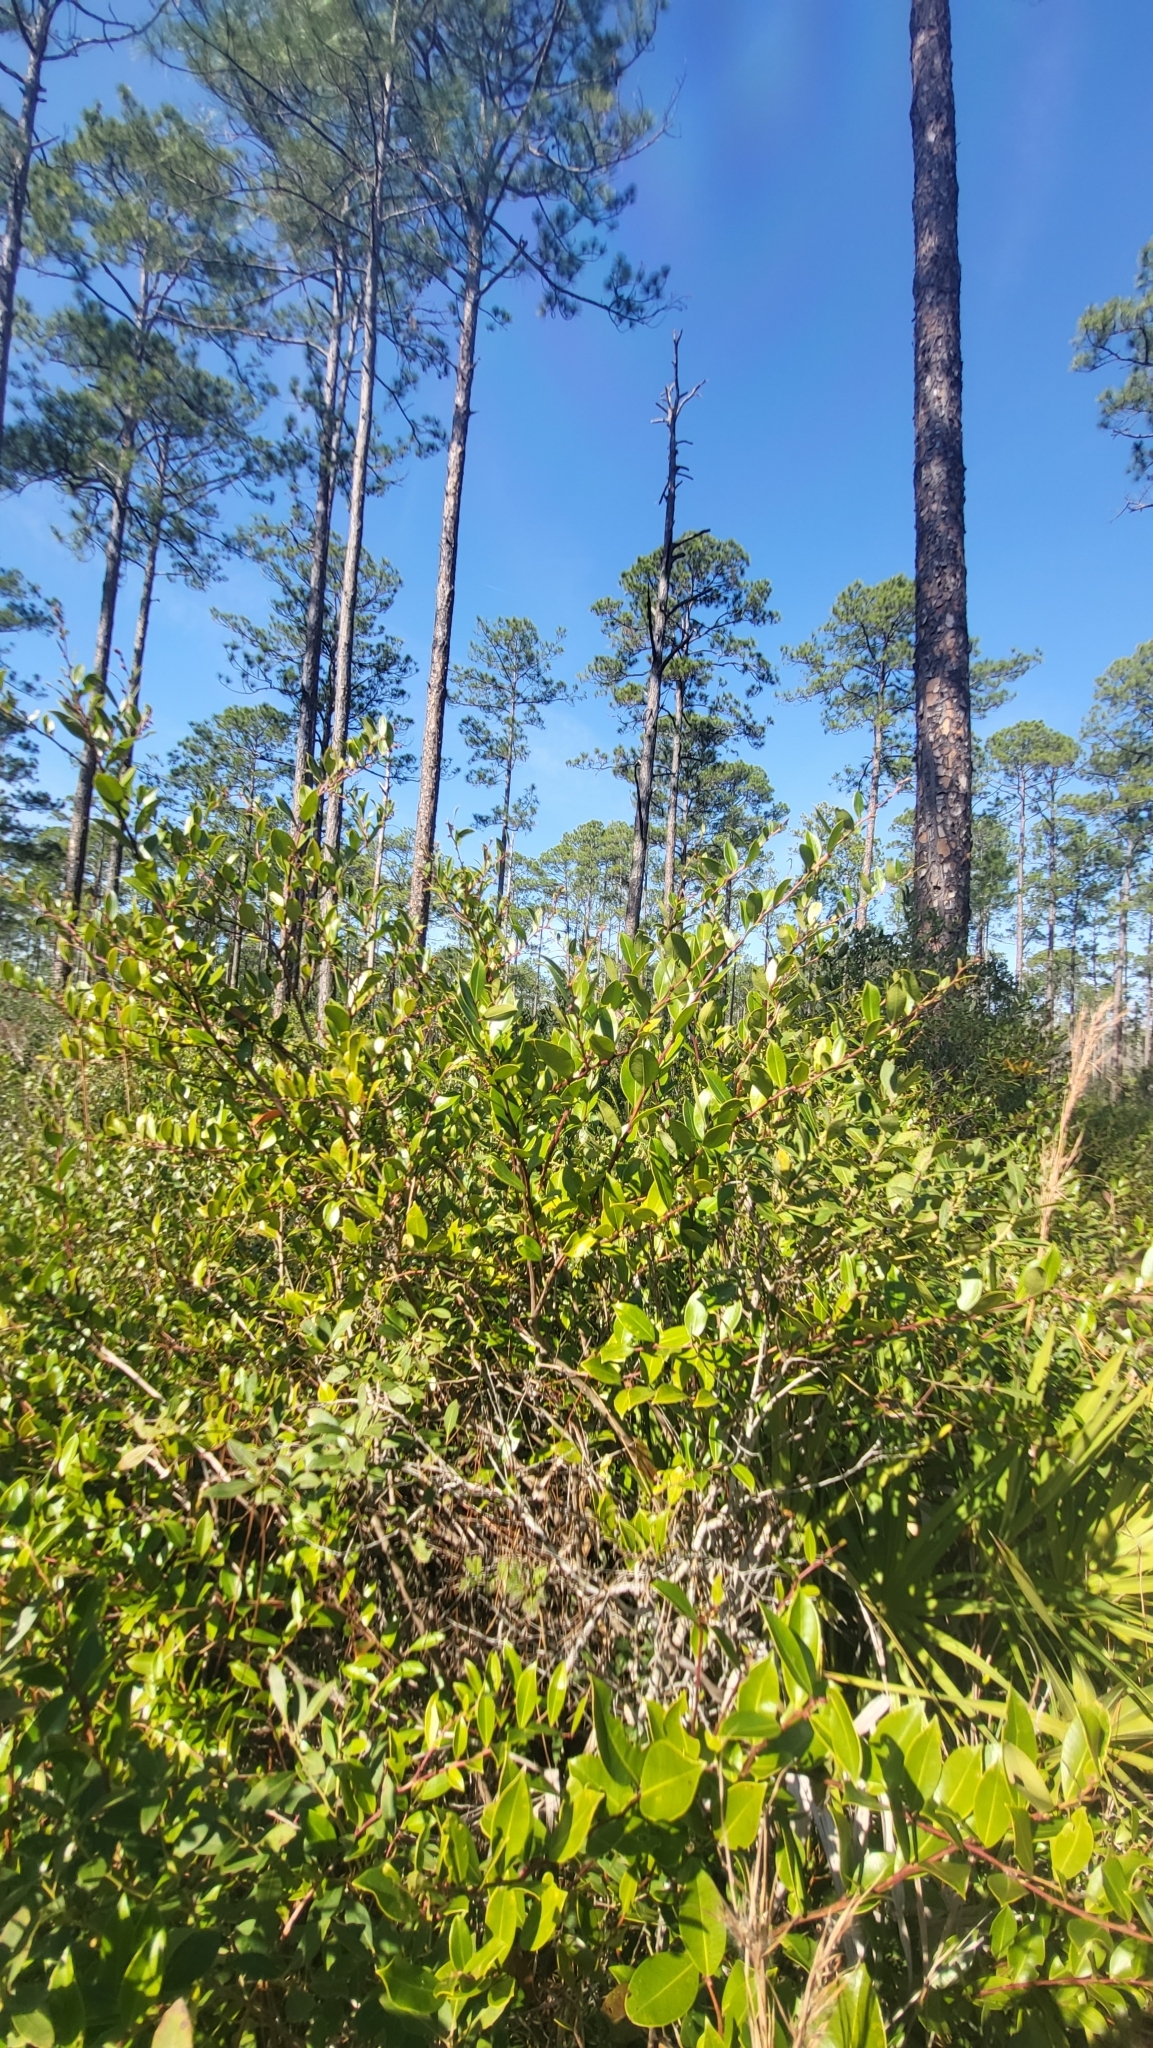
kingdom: Plantae
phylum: Tracheophyta
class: Magnoliopsida
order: Ericales
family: Ericaceae
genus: Lyonia
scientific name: Lyonia lucida
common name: Fetterbush
